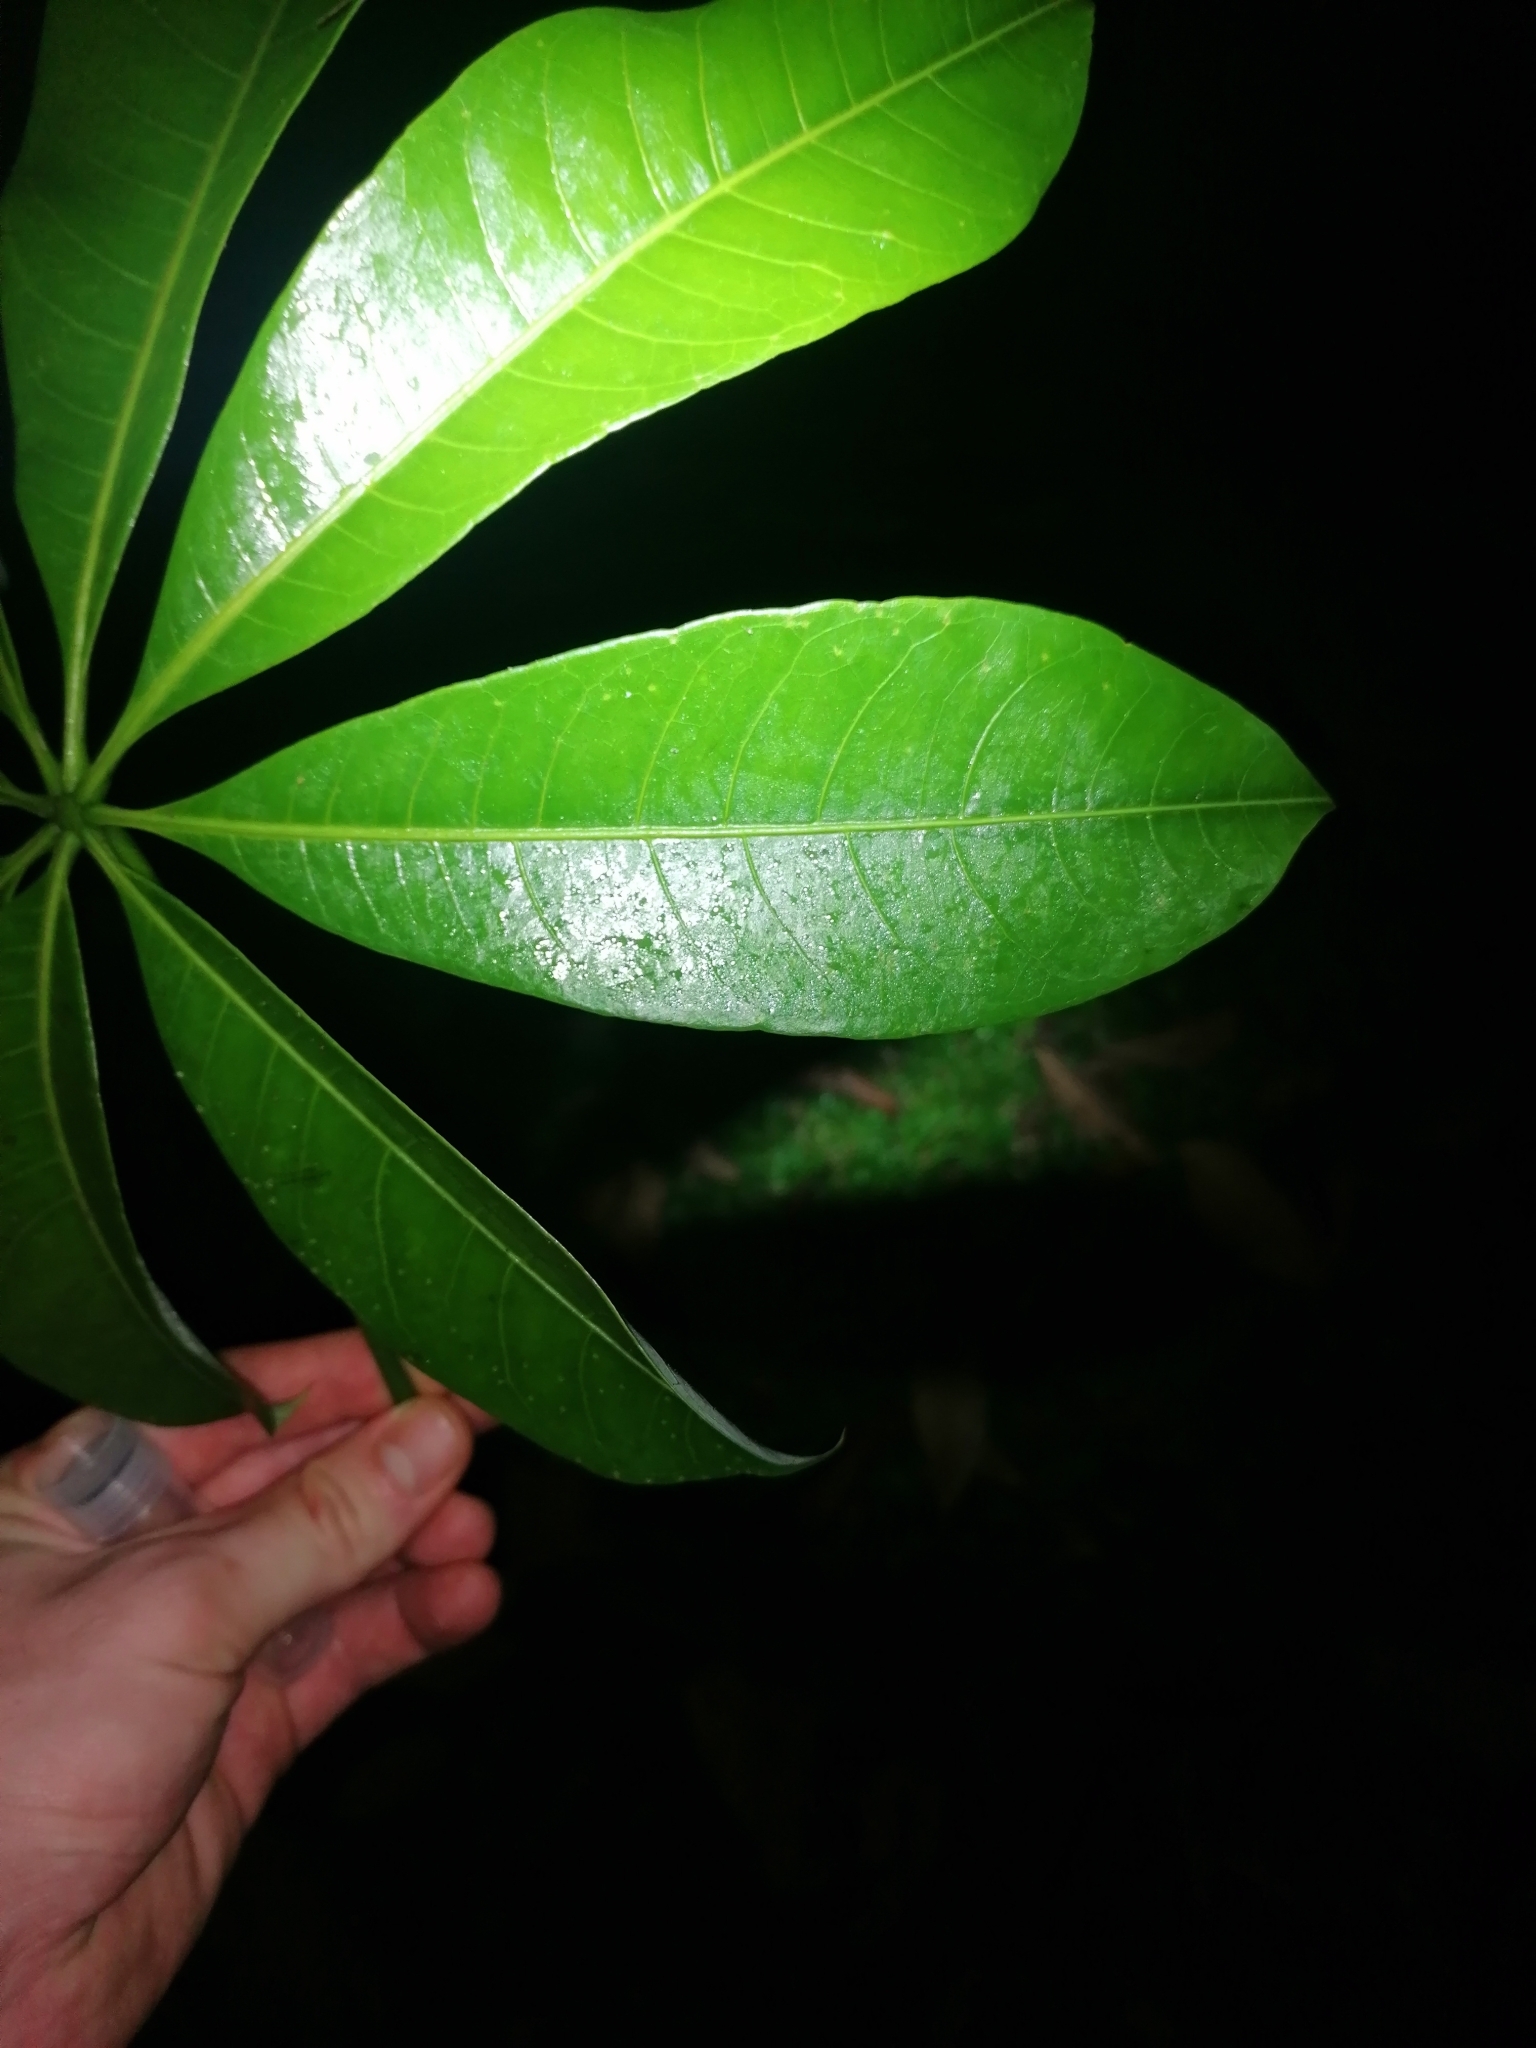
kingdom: Plantae
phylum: Tracheophyta
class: Magnoliopsida
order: Malvales
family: Malvaceae
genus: Pachira
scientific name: Pachira aquatica
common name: Provision-tree
